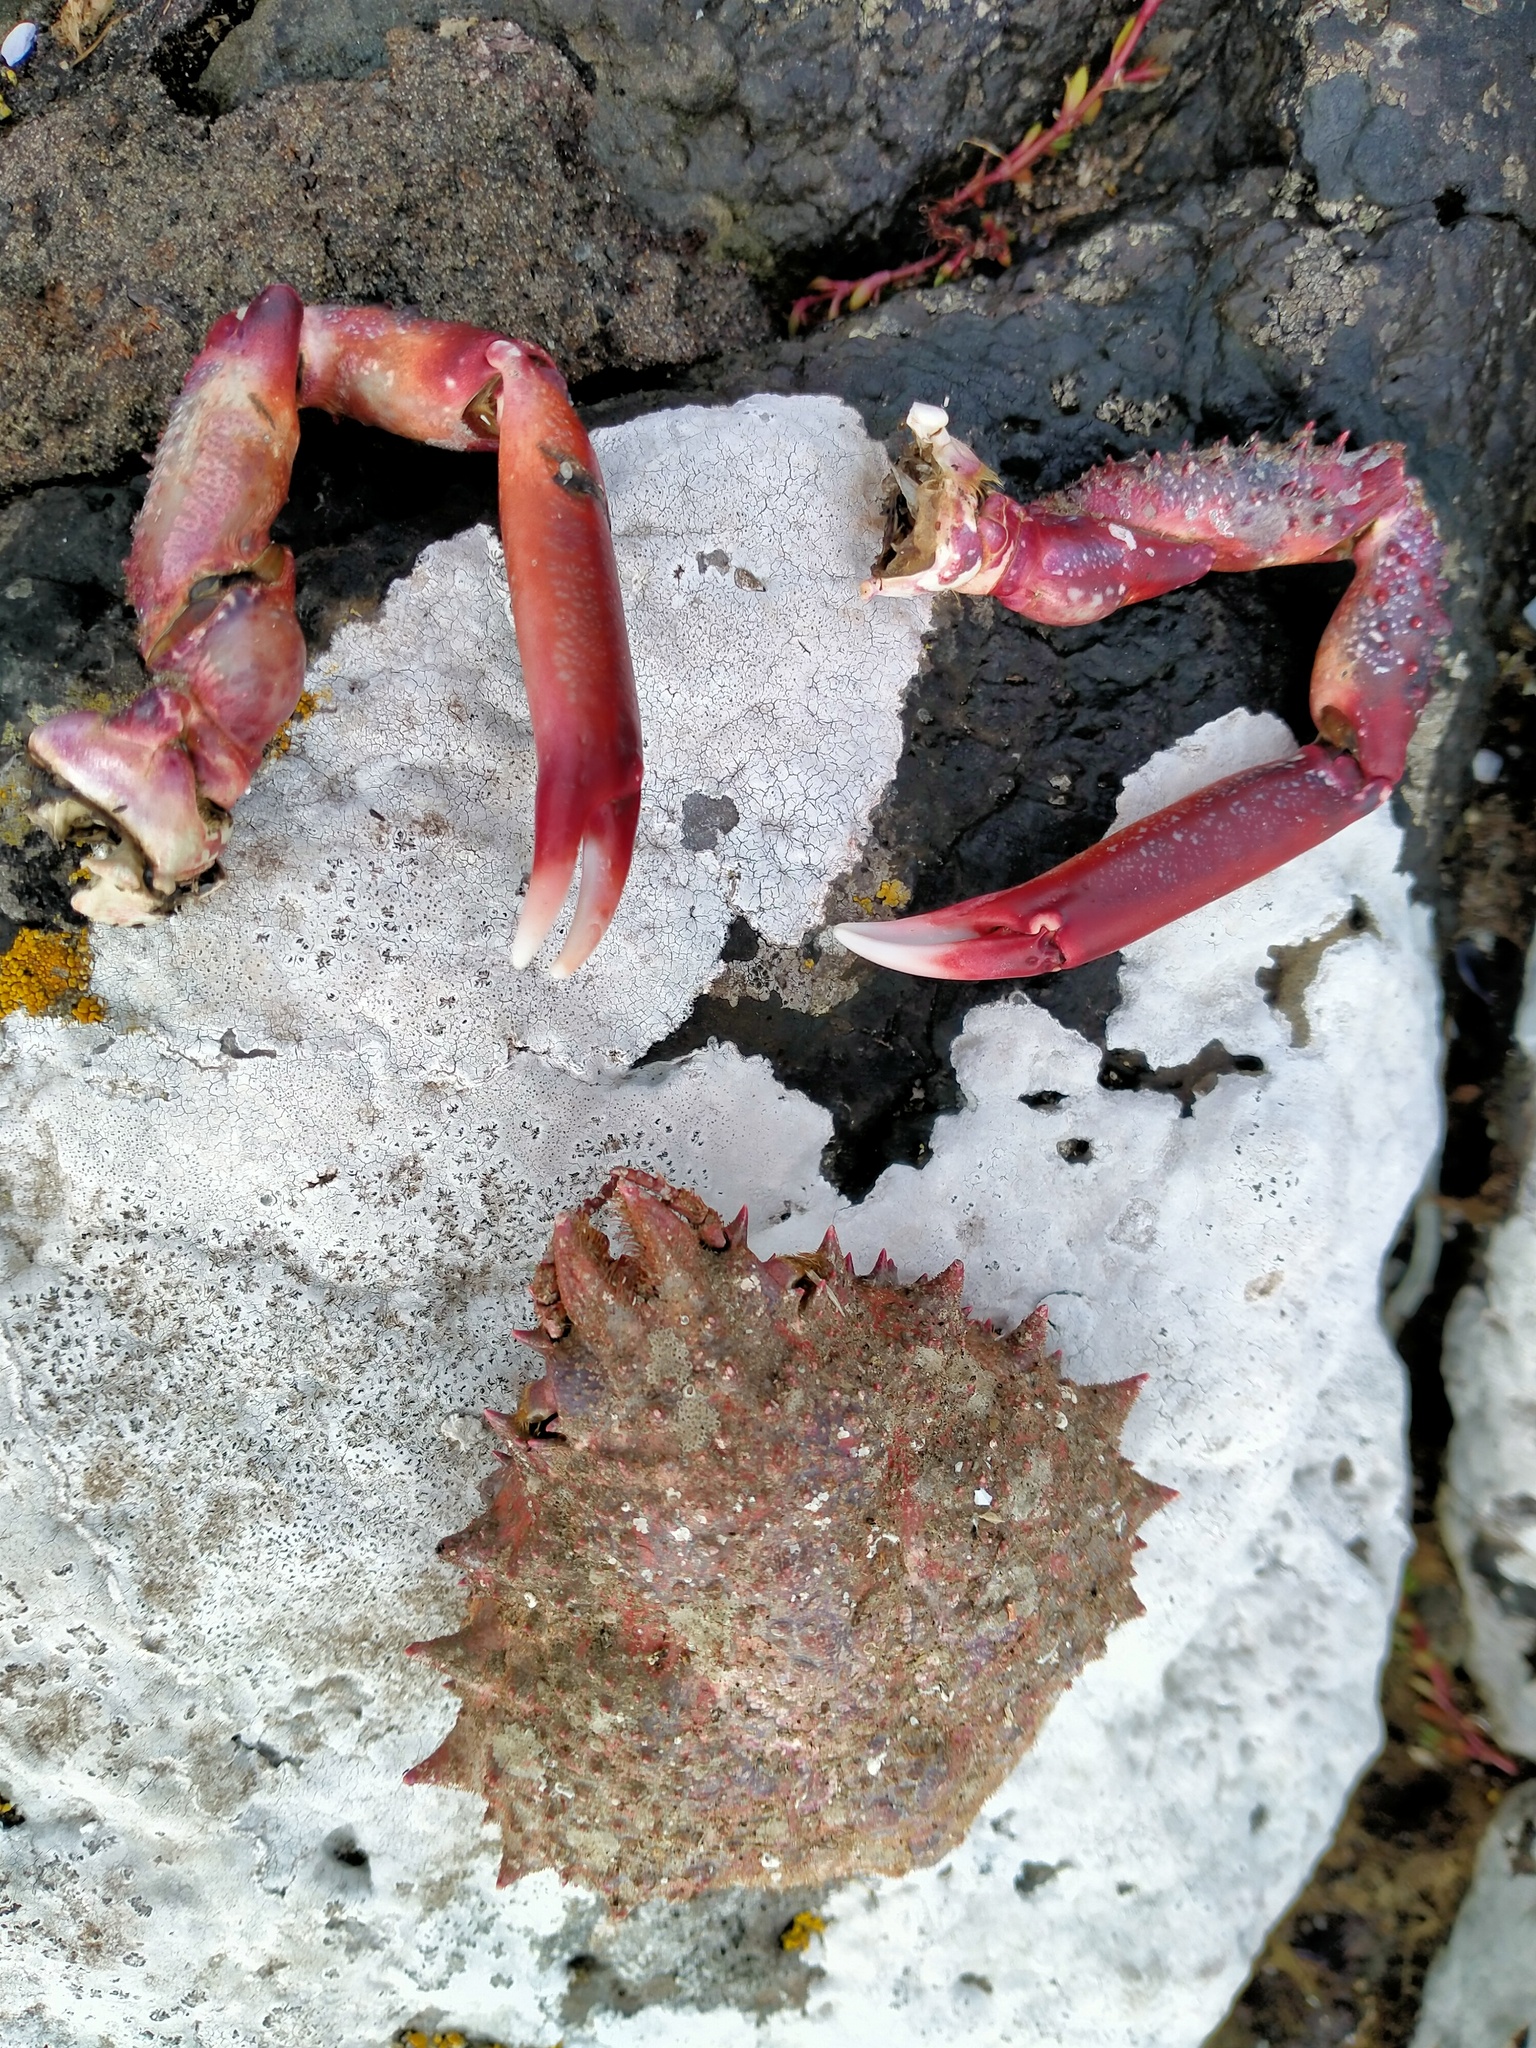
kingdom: Animalia
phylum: Arthropoda
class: Malacostraca
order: Decapoda
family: Majidae
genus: Leptomithrax
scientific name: Leptomithrax australis
